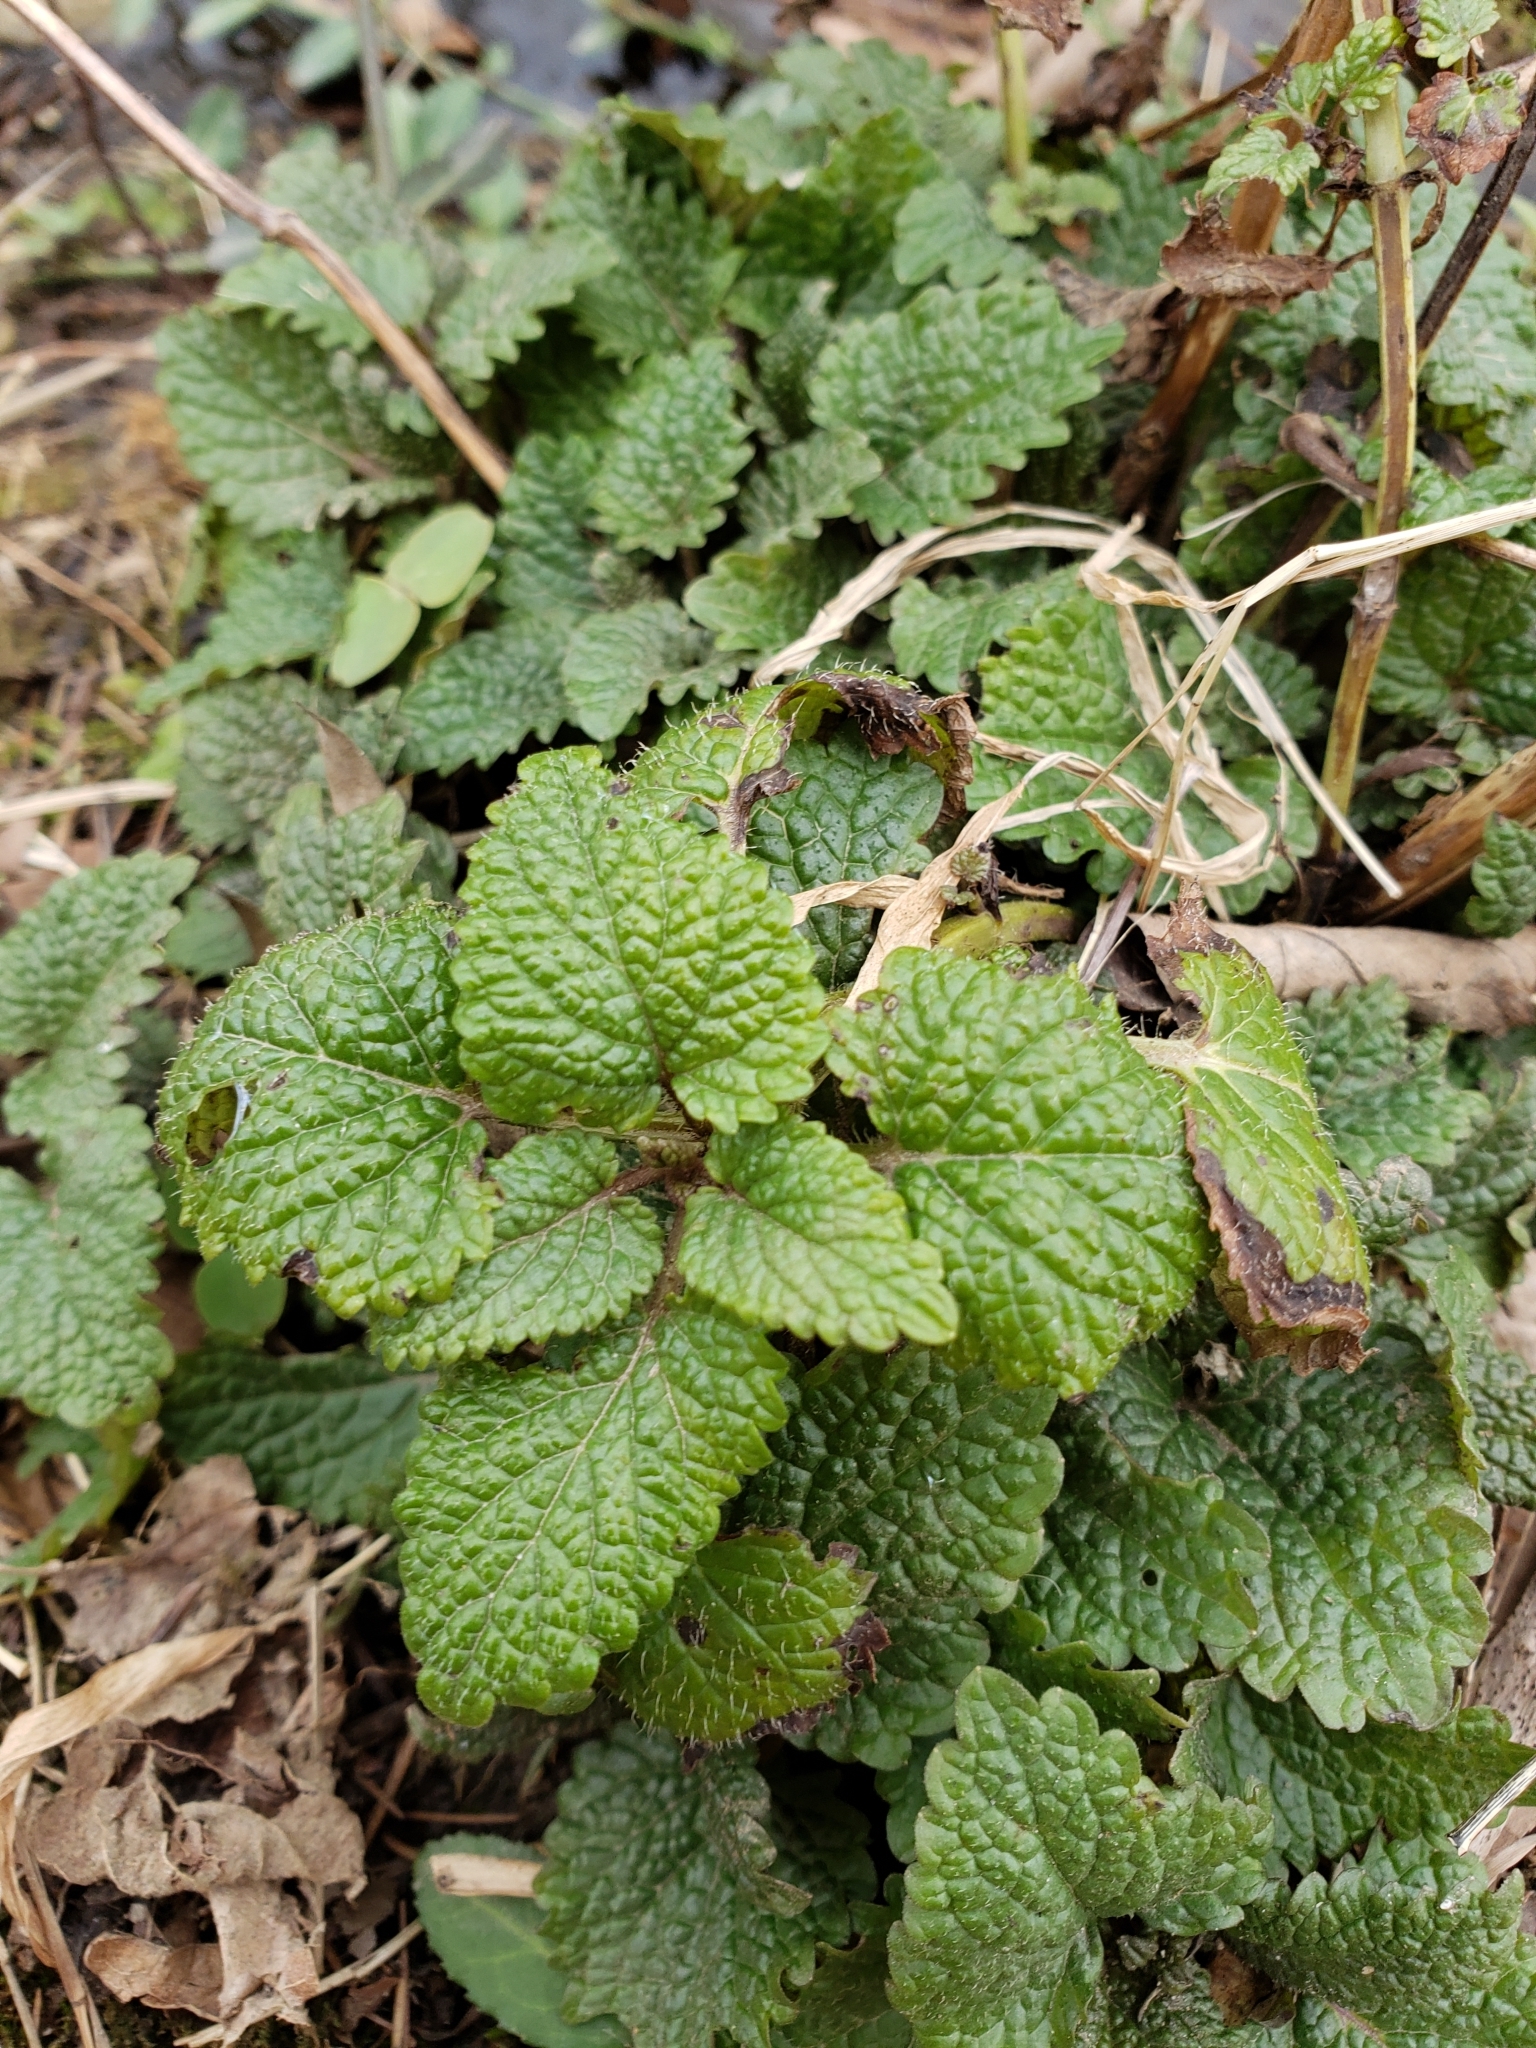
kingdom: Plantae
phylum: Tracheophyta
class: Magnoliopsida
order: Lamiales
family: Lamiaceae
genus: Melissa
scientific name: Melissa officinalis
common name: Balm
